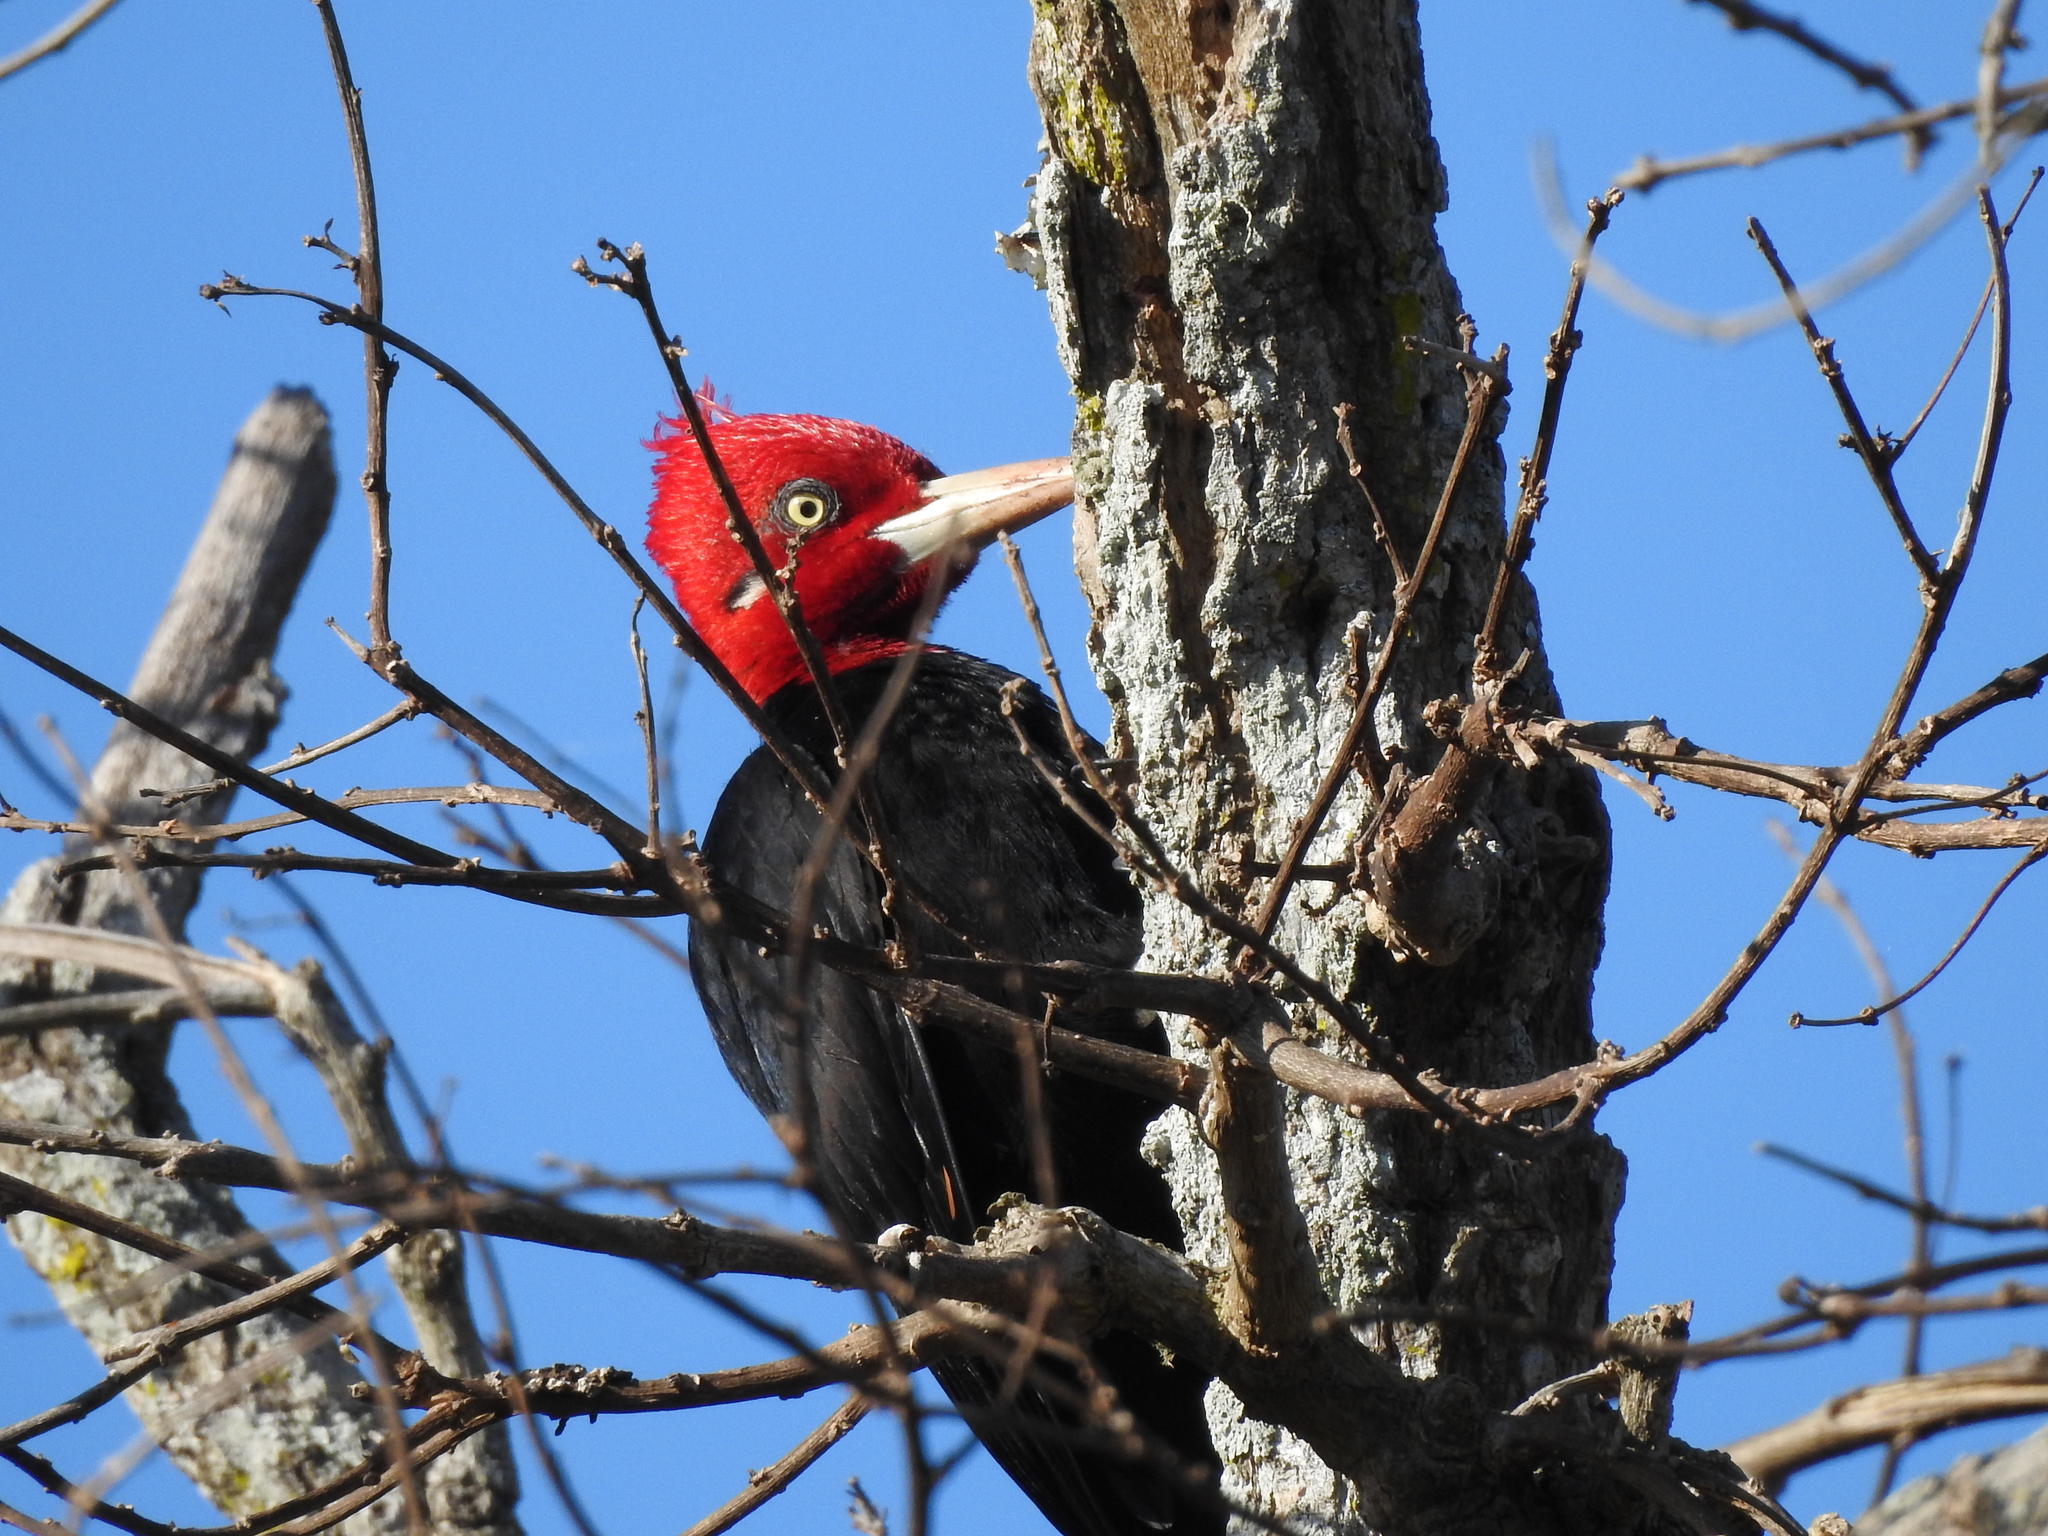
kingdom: Animalia
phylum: Chordata
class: Aves
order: Piciformes
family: Picidae
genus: Campephilus
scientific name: Campephilus leucopogon
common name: Cream-backed woodpecker
